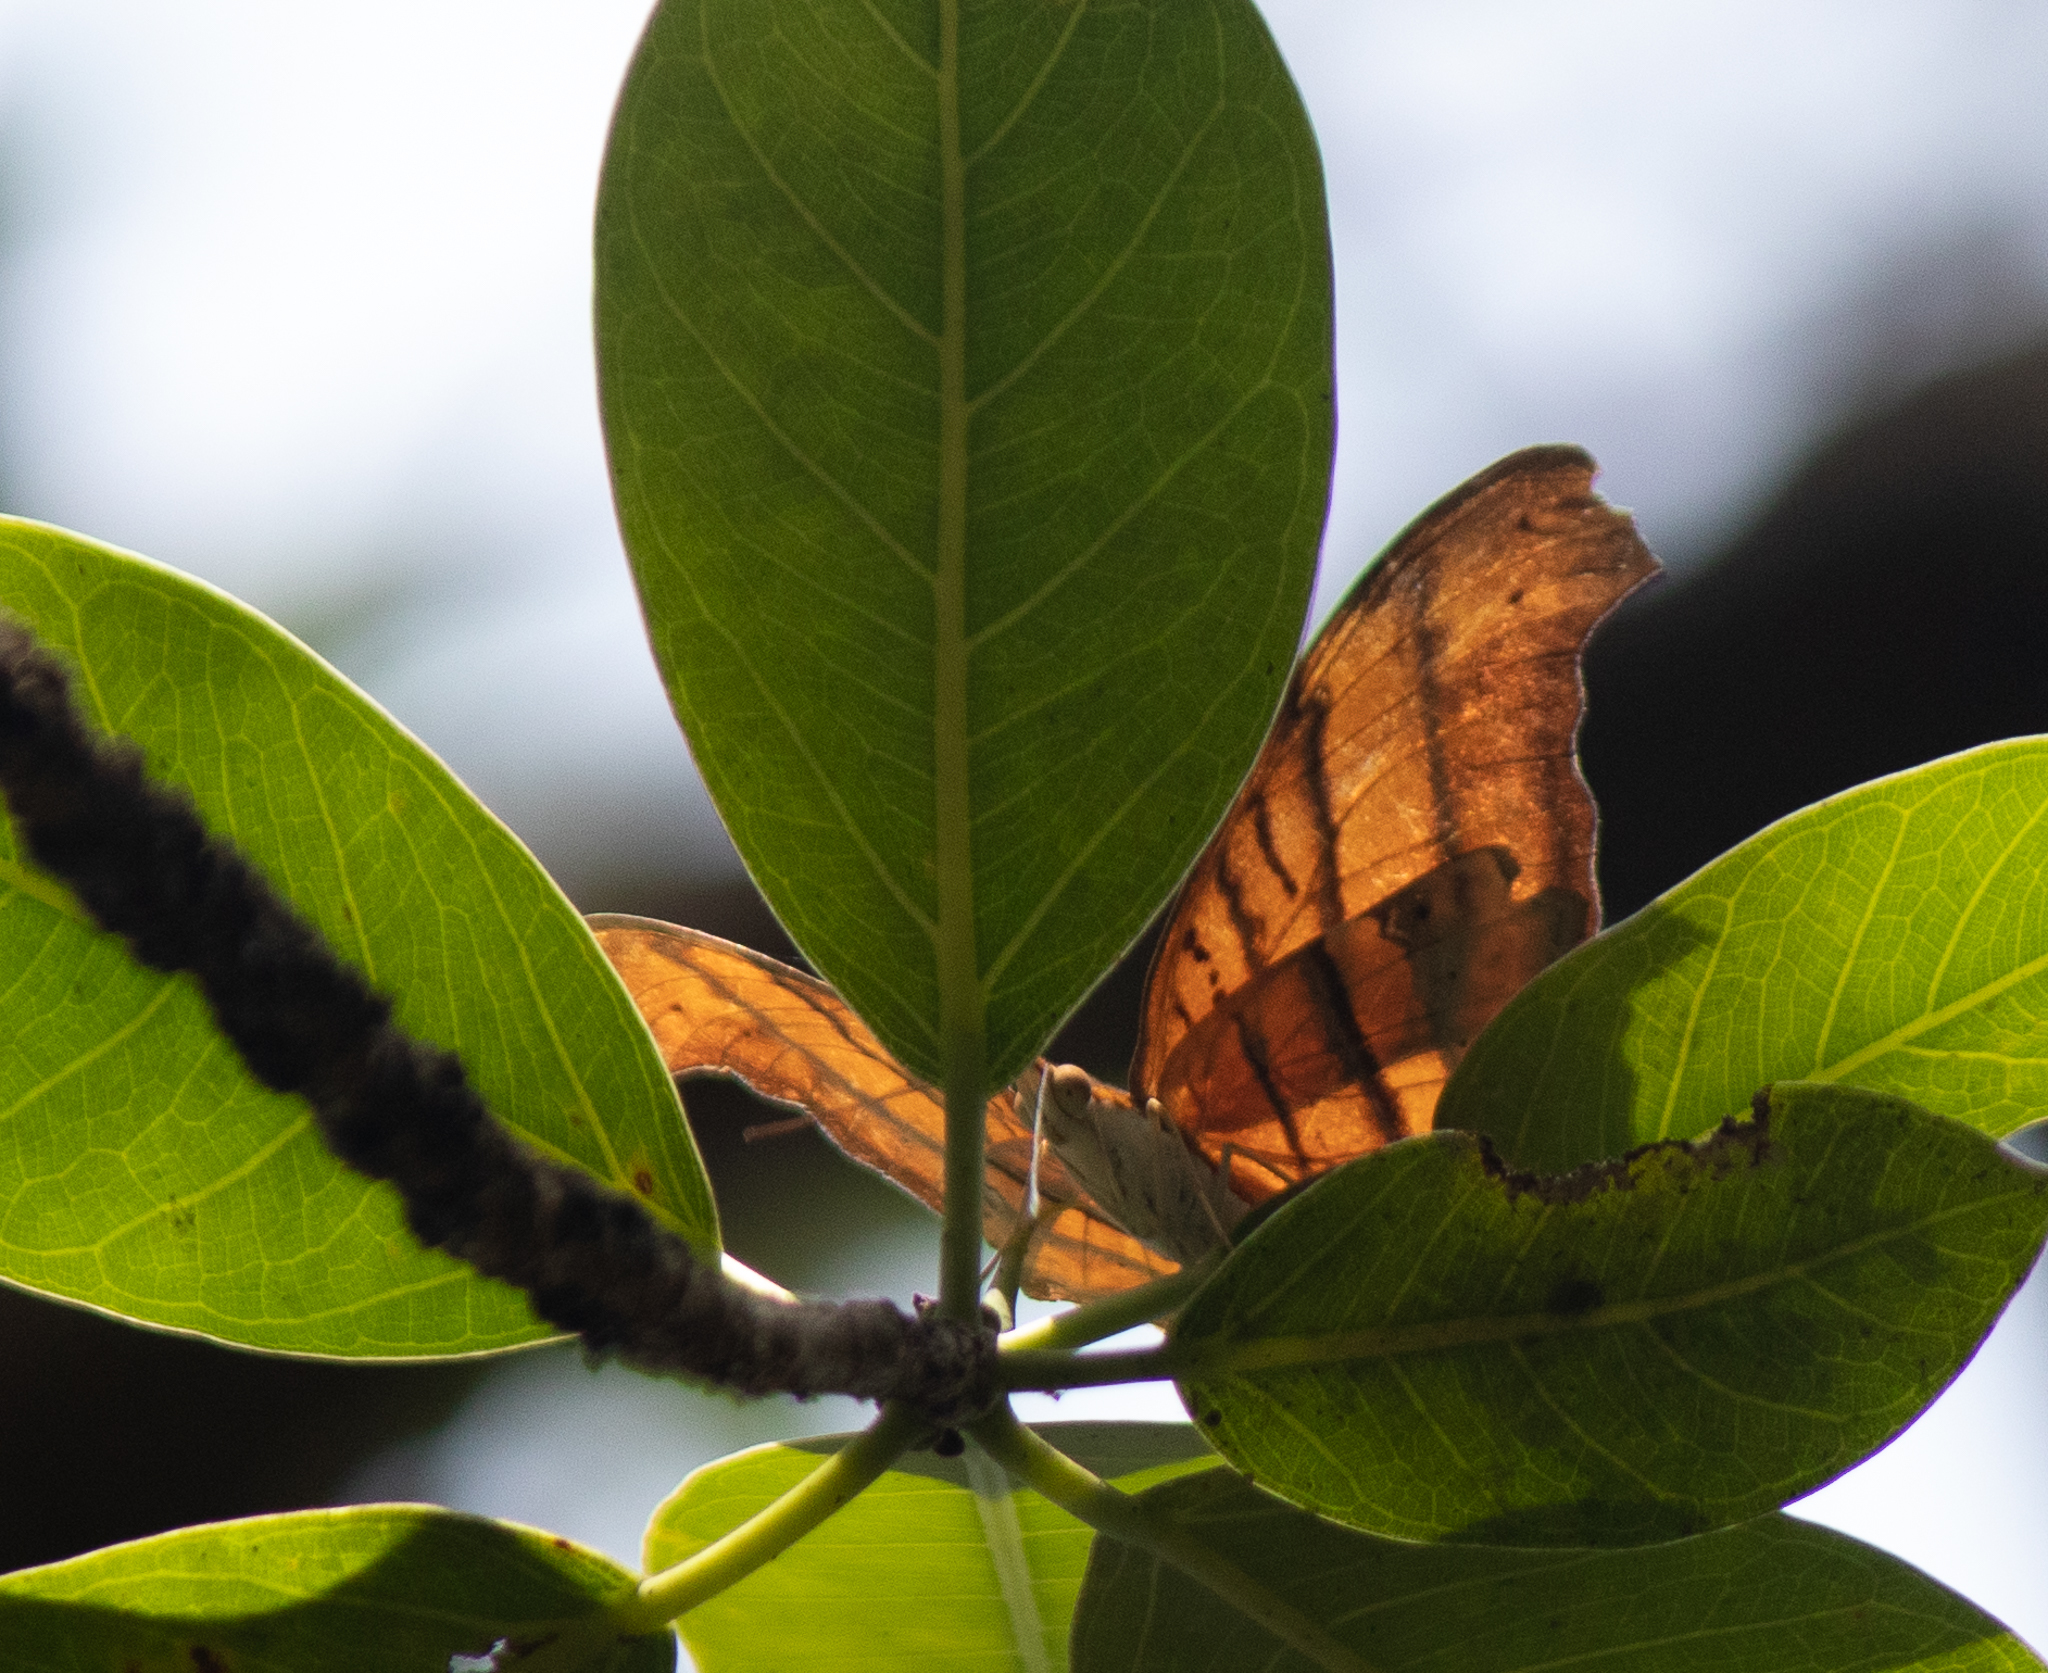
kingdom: Animalia
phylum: Arthropoda
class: Insecta
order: Lepidoptera
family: Nymphalidae
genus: Marpesia
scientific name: Marpesia petreus
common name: Red dagger wing
